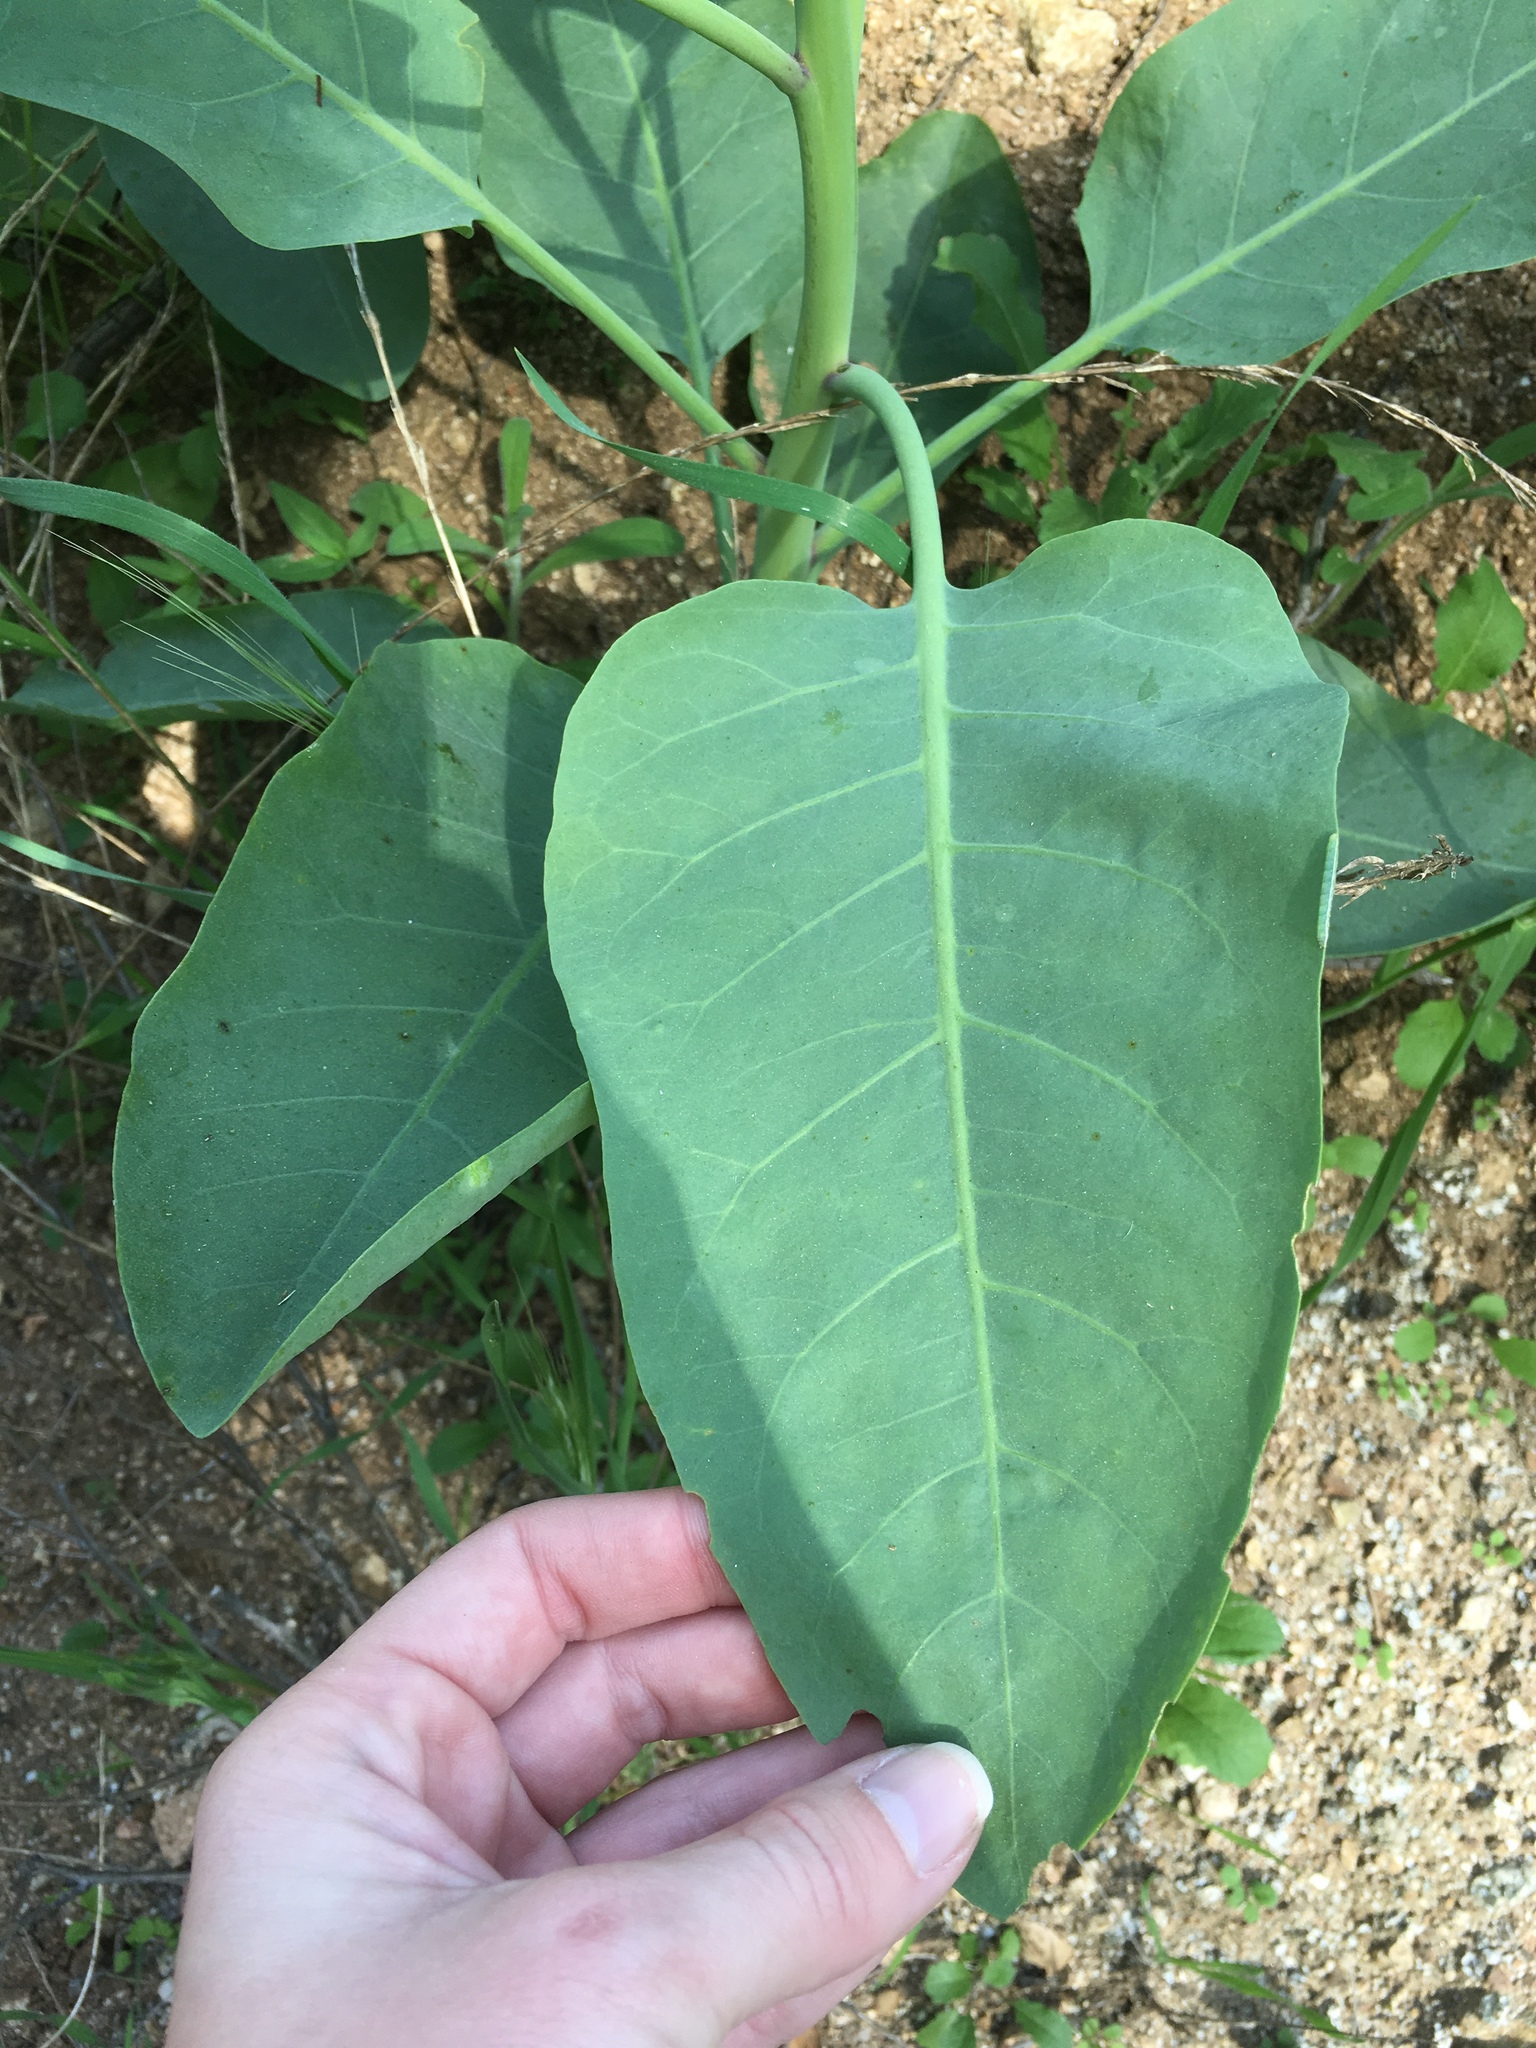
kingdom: Plantae
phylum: Tracheophyta
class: Magnoliopsida
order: Solanales
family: Solanaceae
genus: Nicotiana
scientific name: Nicotiana glauca
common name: Tree tobacco
